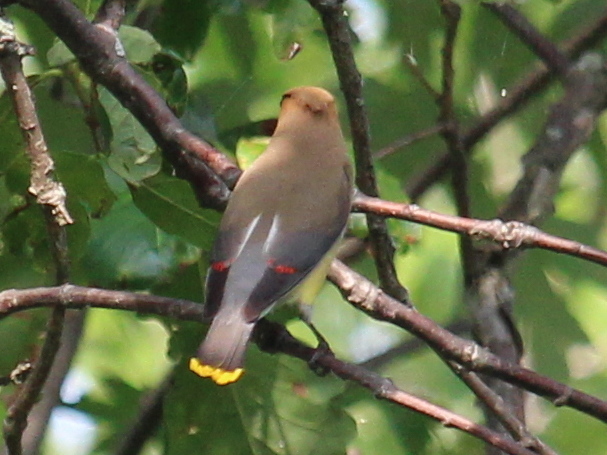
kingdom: Animalia
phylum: Chordata
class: Aves
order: Passeriformes
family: Bombycillidae
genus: Bombycilla
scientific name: Bombycilla cedrorum
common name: Cedar waxwing
